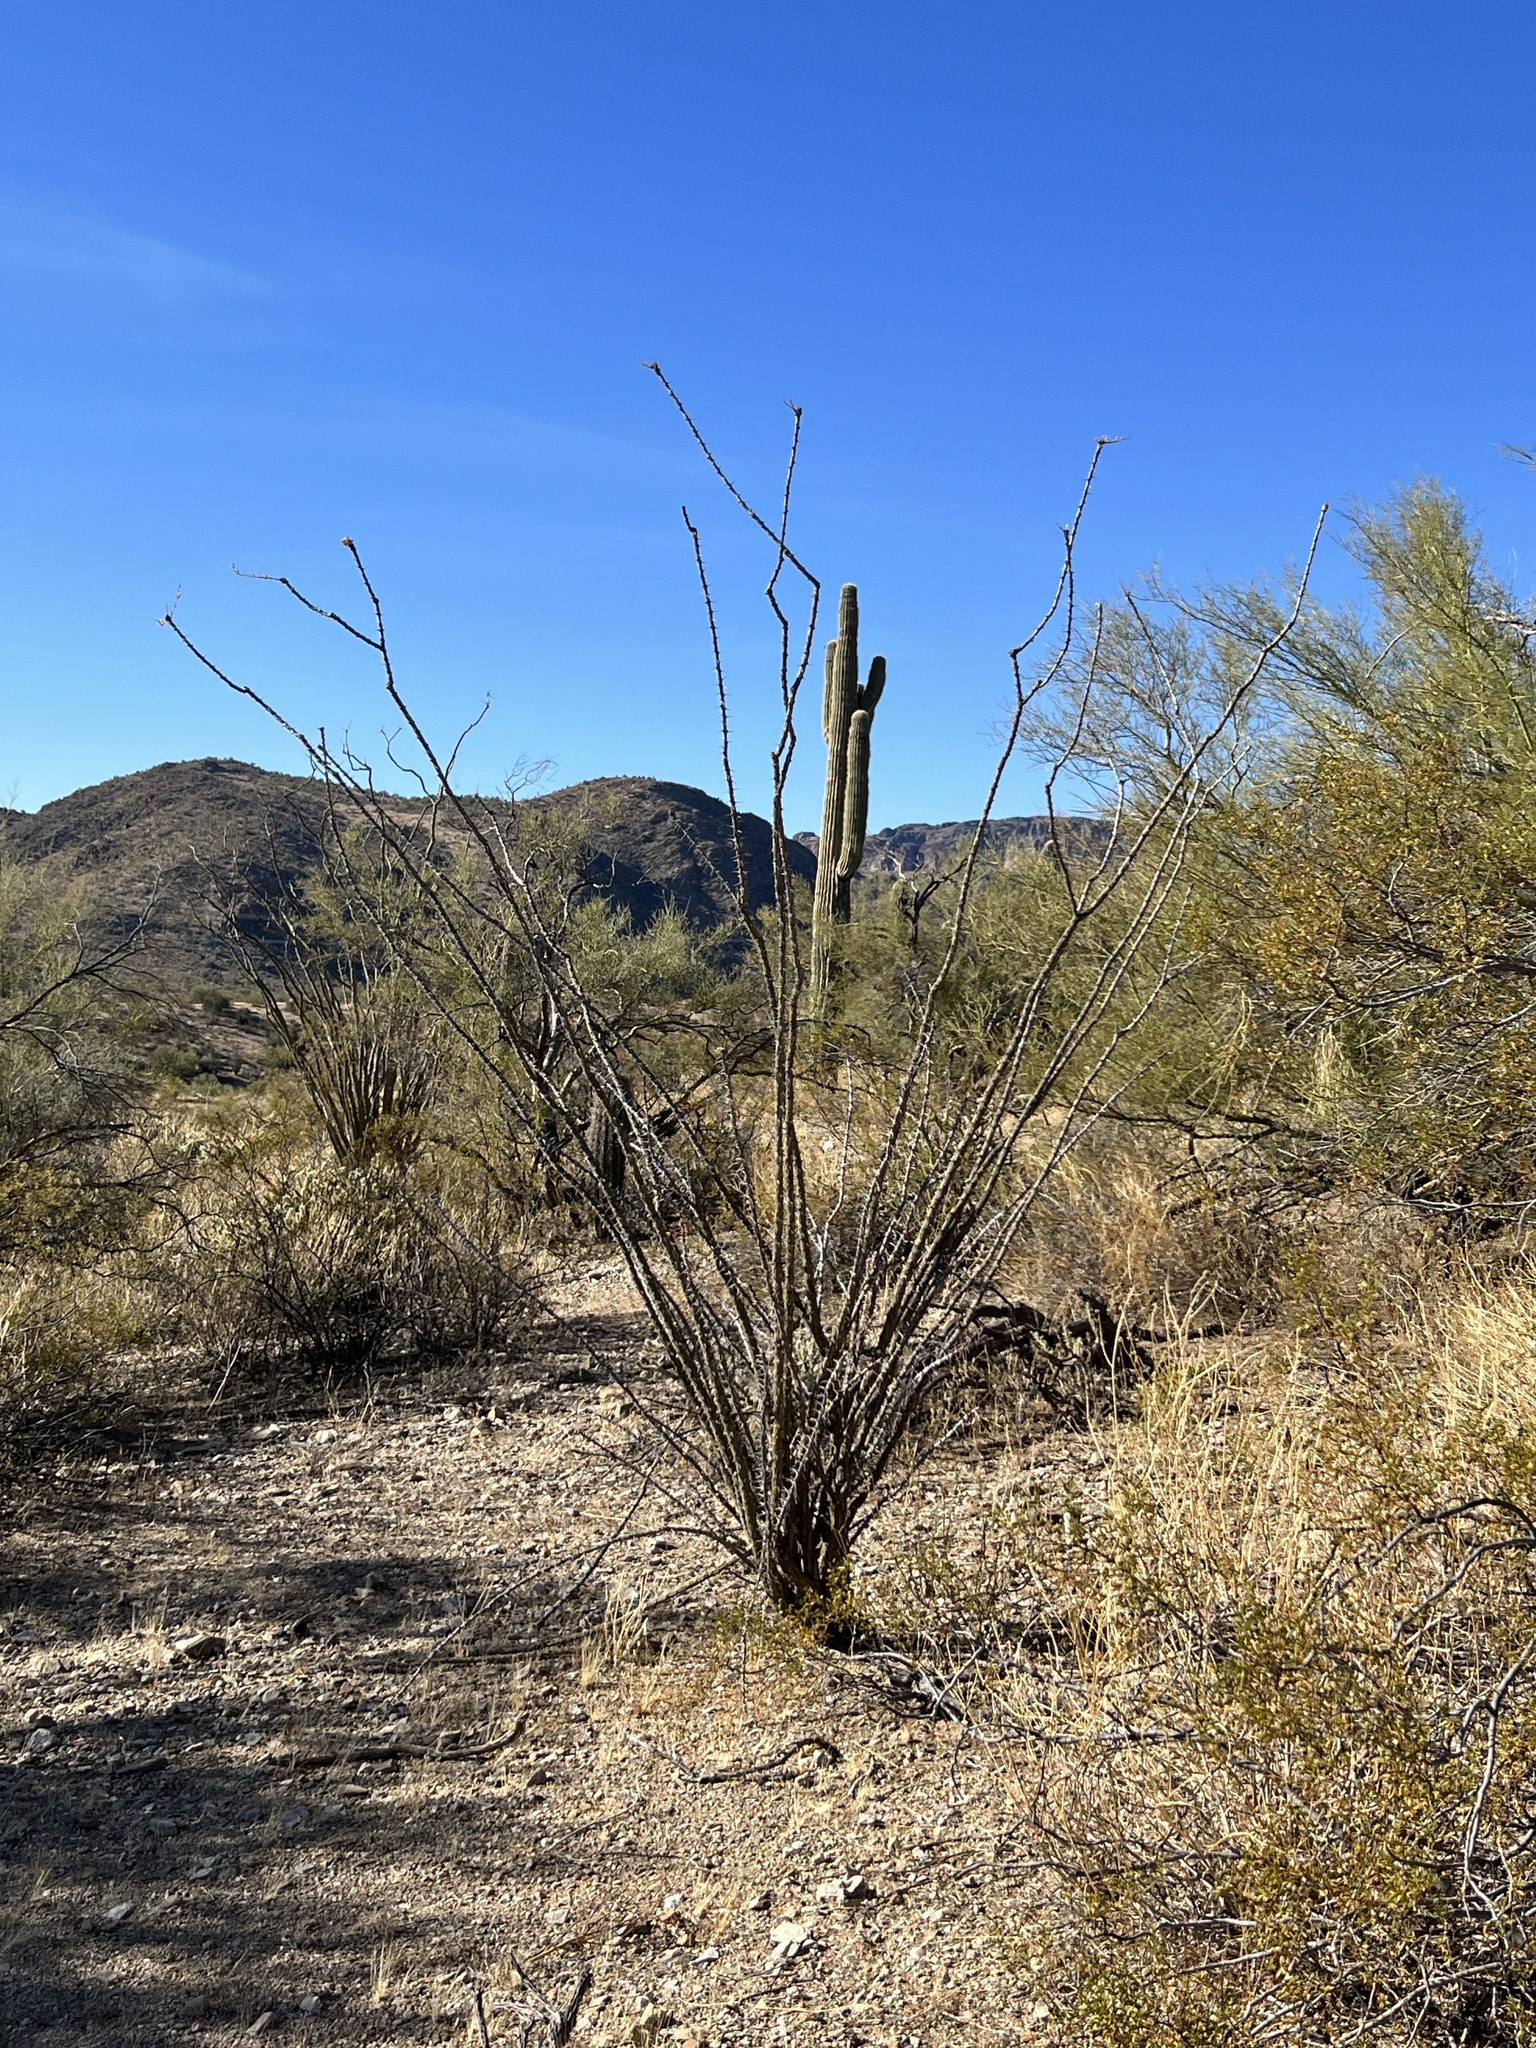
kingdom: Plantae
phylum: Tracheophyta
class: Magnoliopsida
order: Ericales
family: Fouquieriaceae
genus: Fouquieria
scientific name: Fouquieria splendens
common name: Vine-cactus
